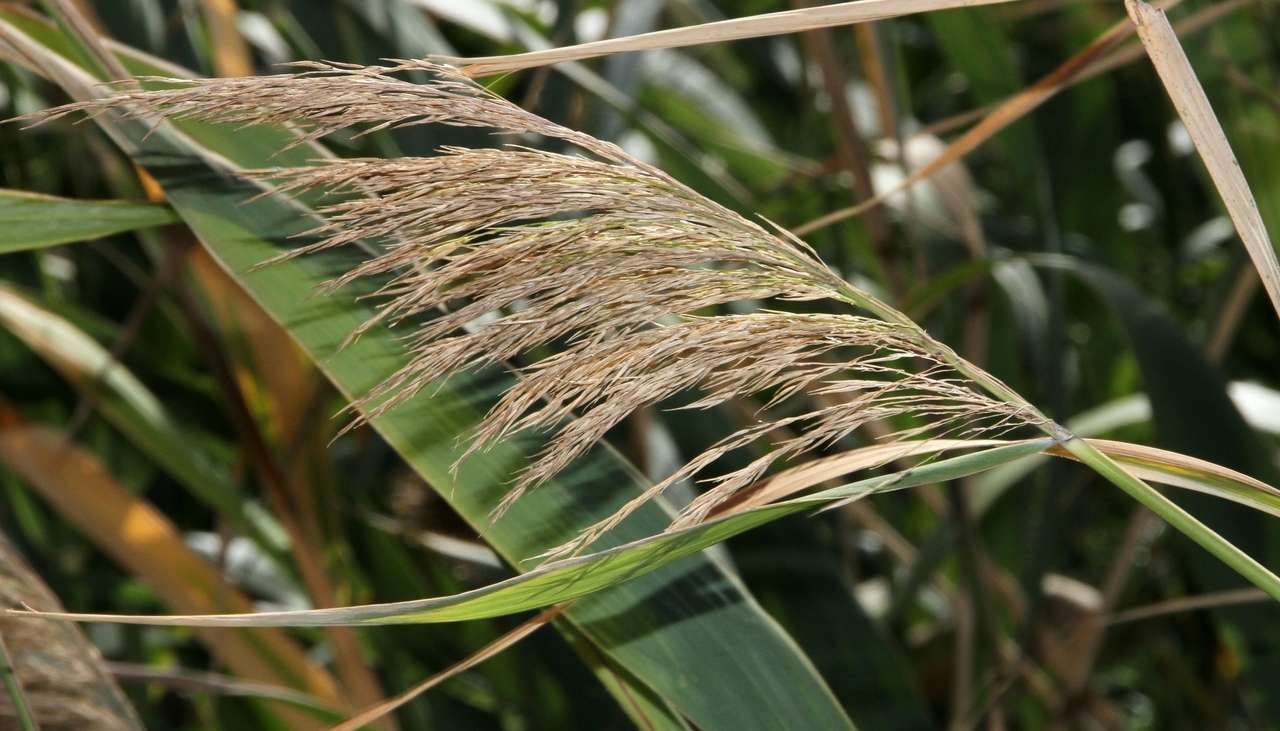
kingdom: Plantae
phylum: Tracheophyta
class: Liliopsida
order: Poales
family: Poaceae
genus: Phragmites
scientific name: Phragmites australis
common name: Common reed
